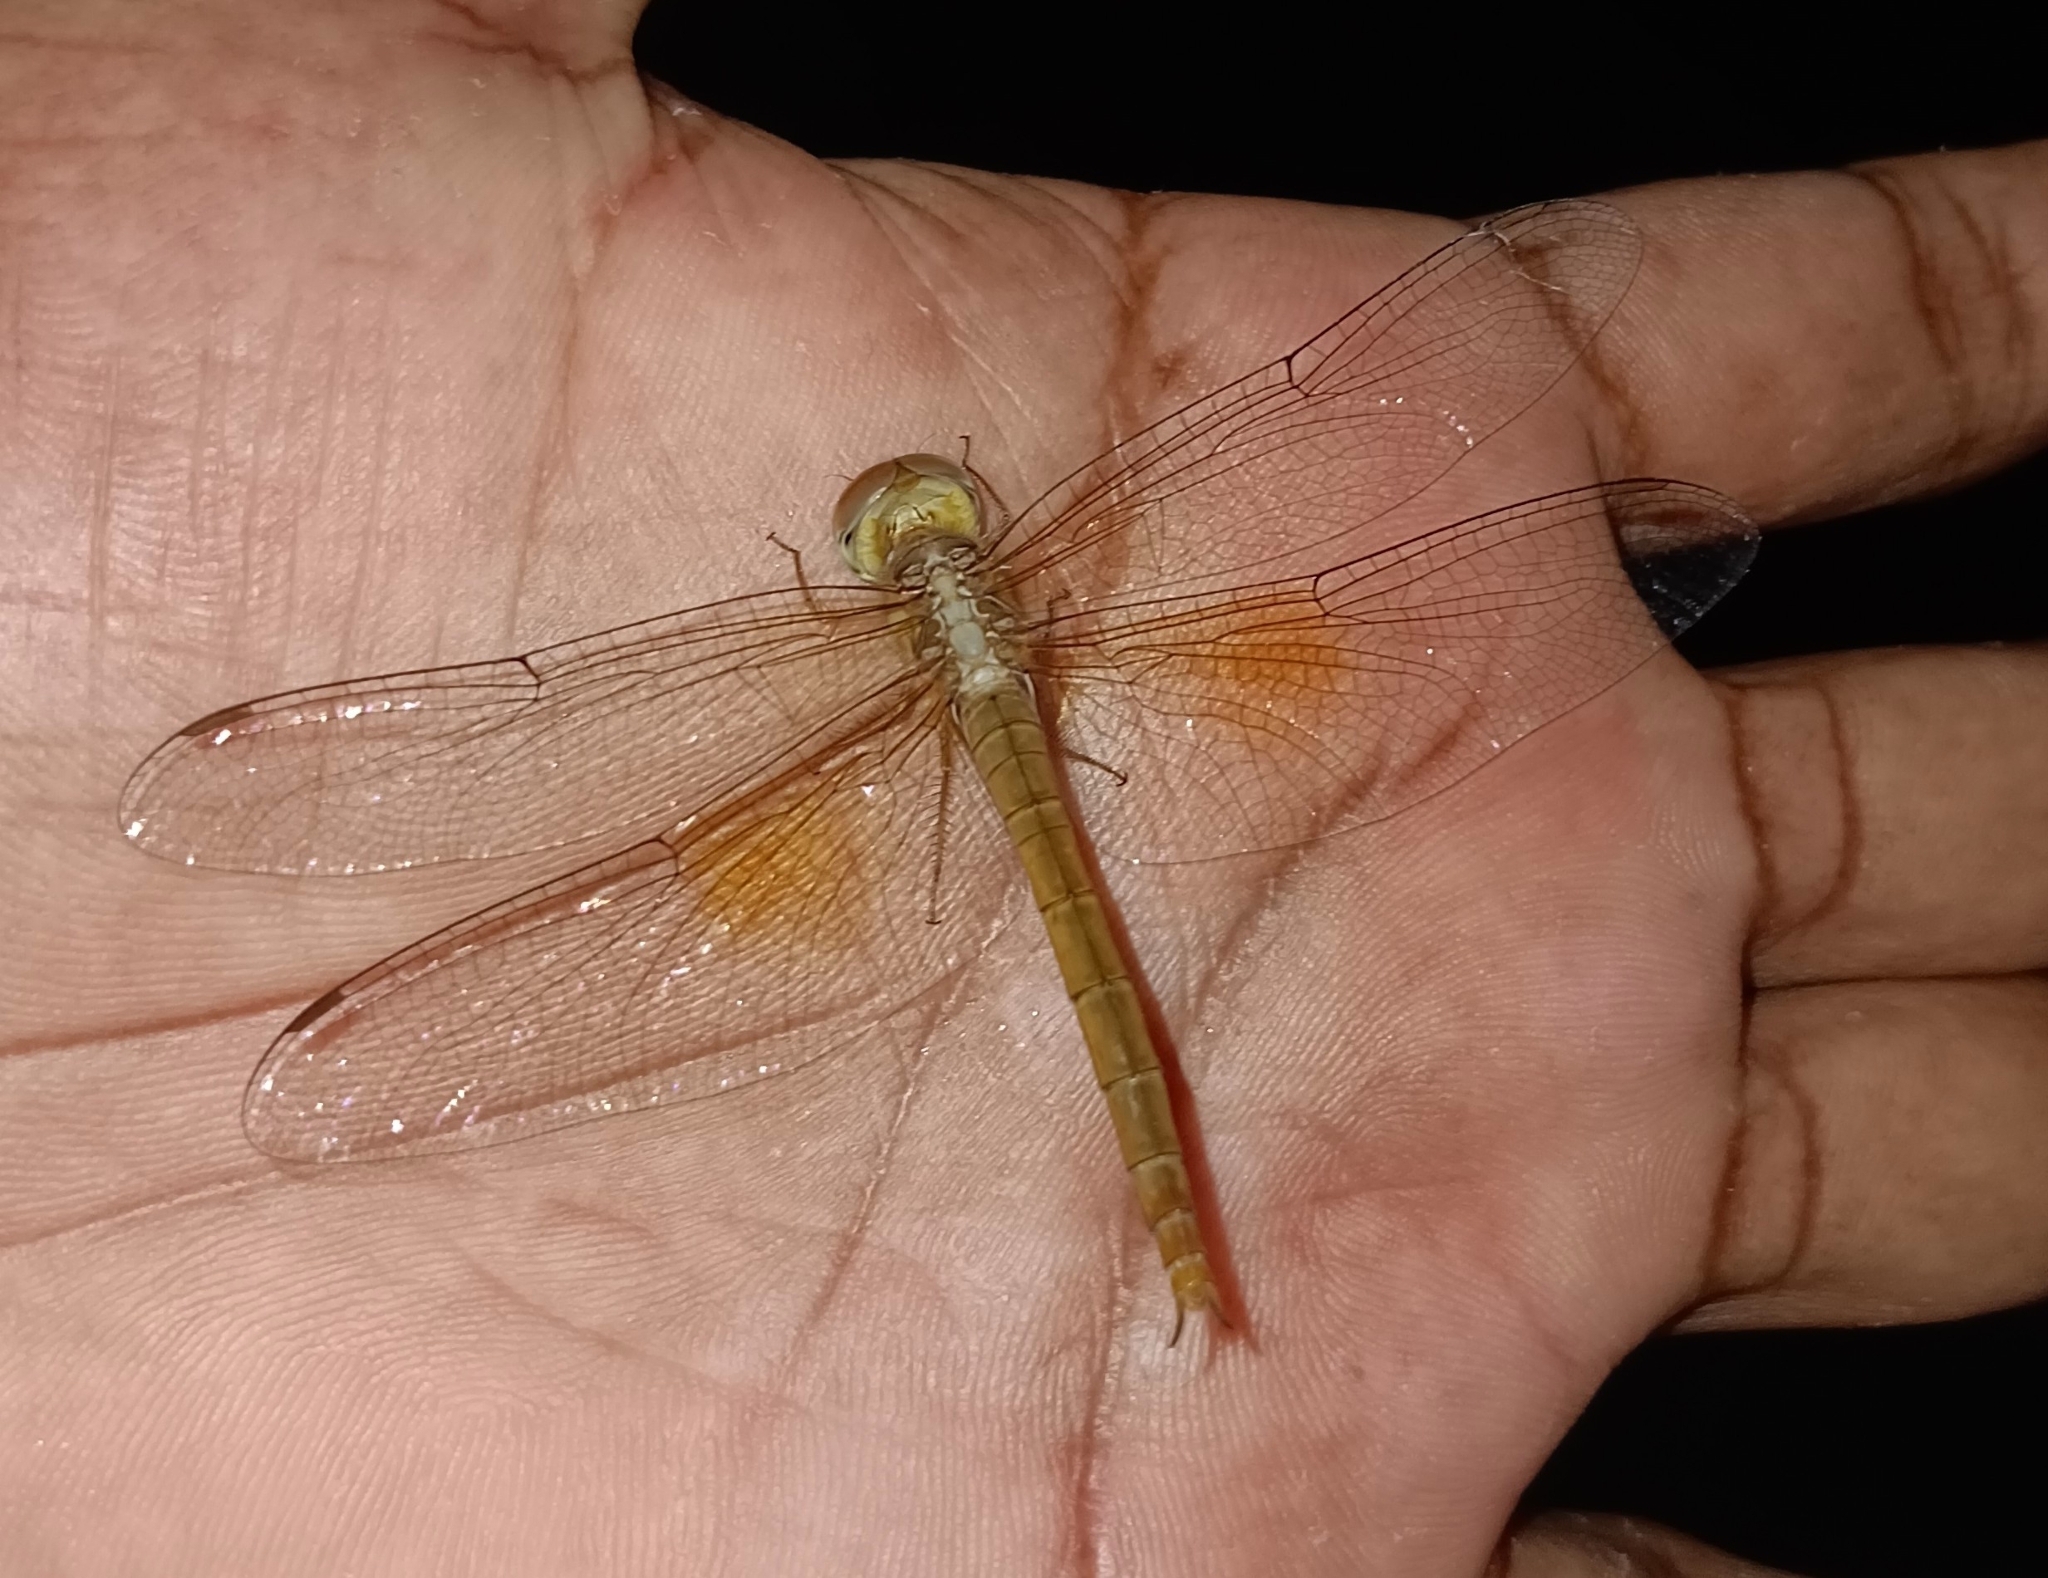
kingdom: Animalia
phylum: Arthropoda
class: Insecta
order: Odonata
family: Libellulidae
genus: Tholymis
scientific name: Tholymis tillarga
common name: Coral-tailed cloud wing
